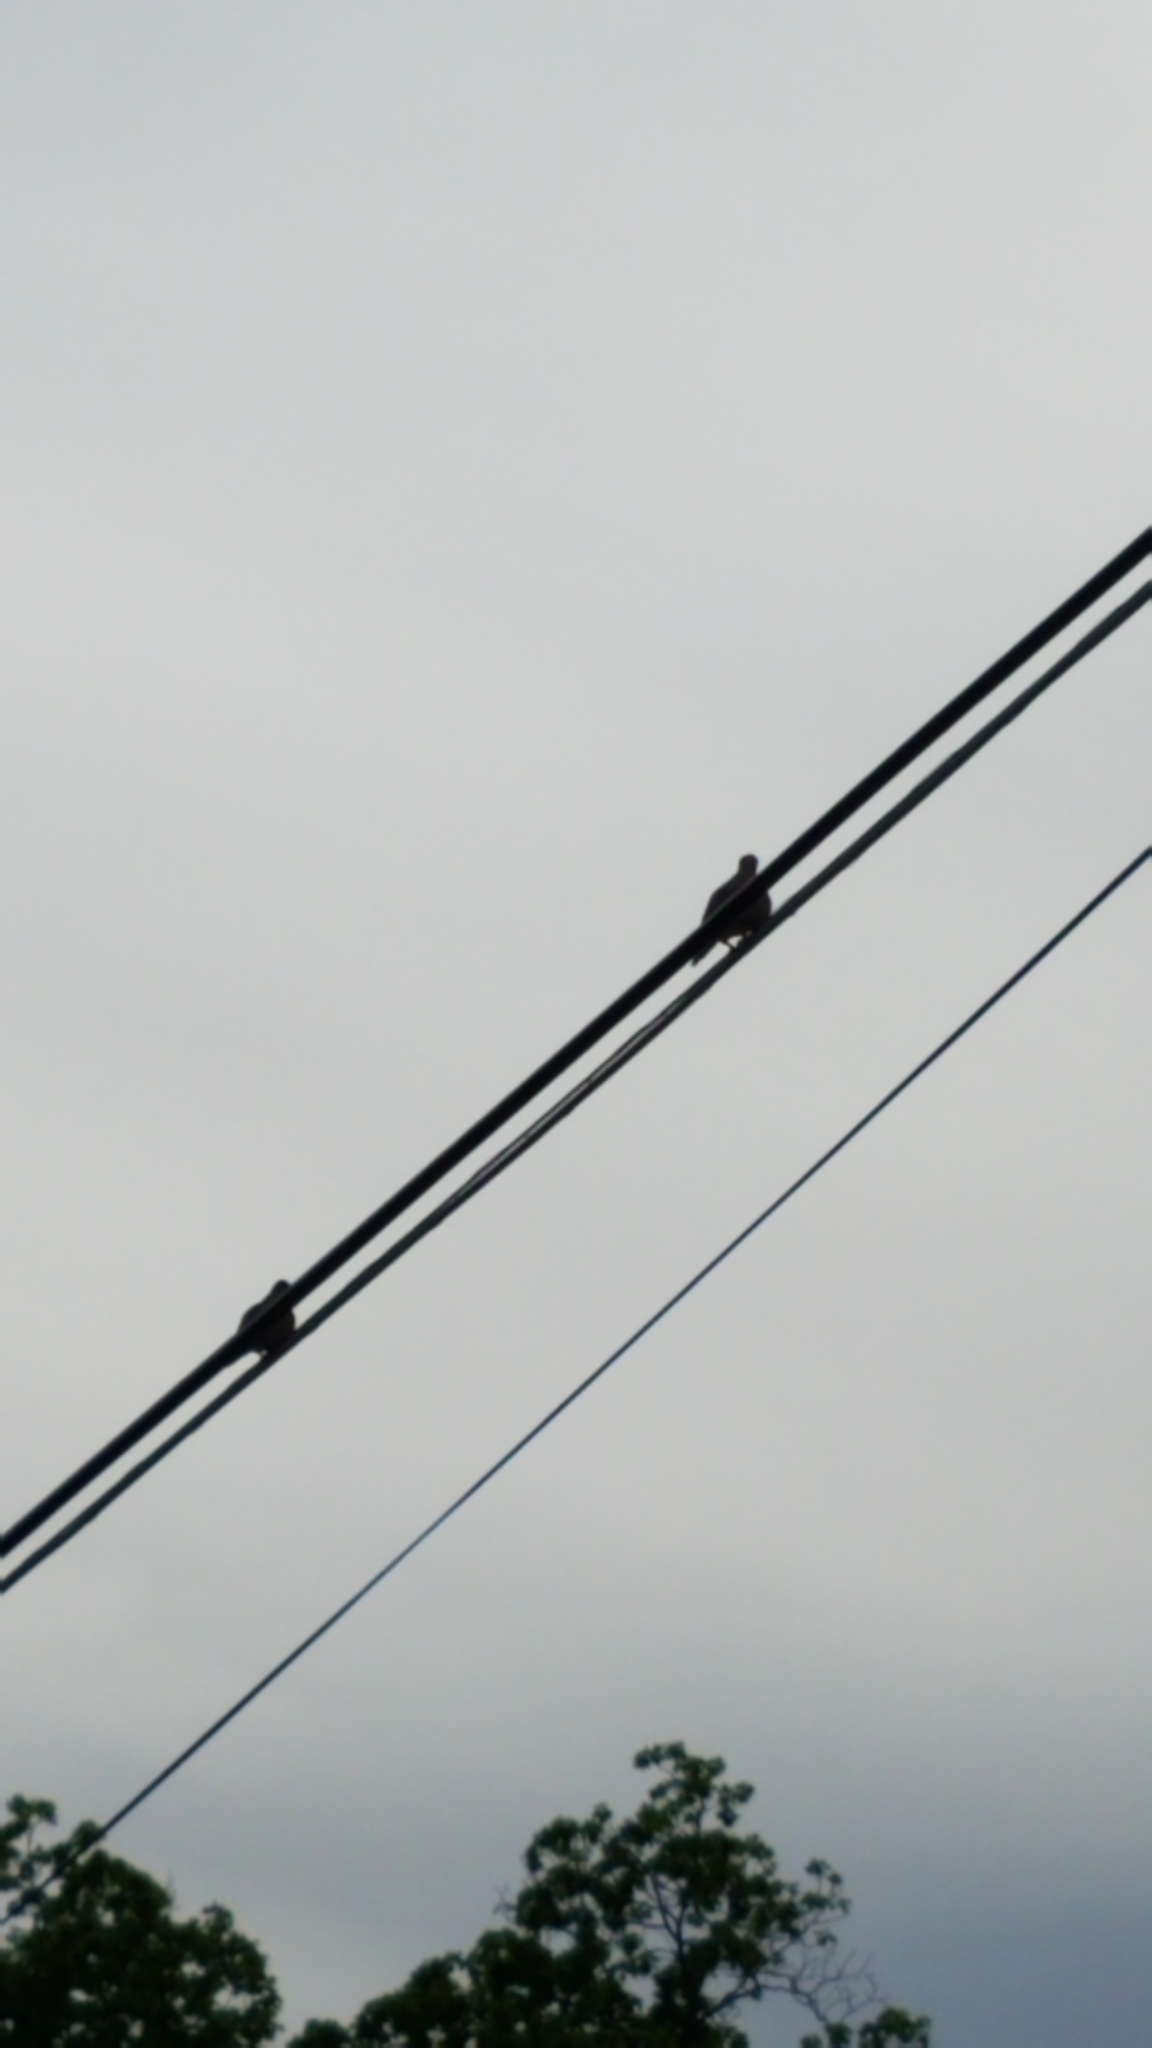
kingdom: Animalia
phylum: Chordata
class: Aves
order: Columbiformes
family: Columbidae
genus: Zenaida
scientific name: Zenaida macroura
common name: Mourning dove
